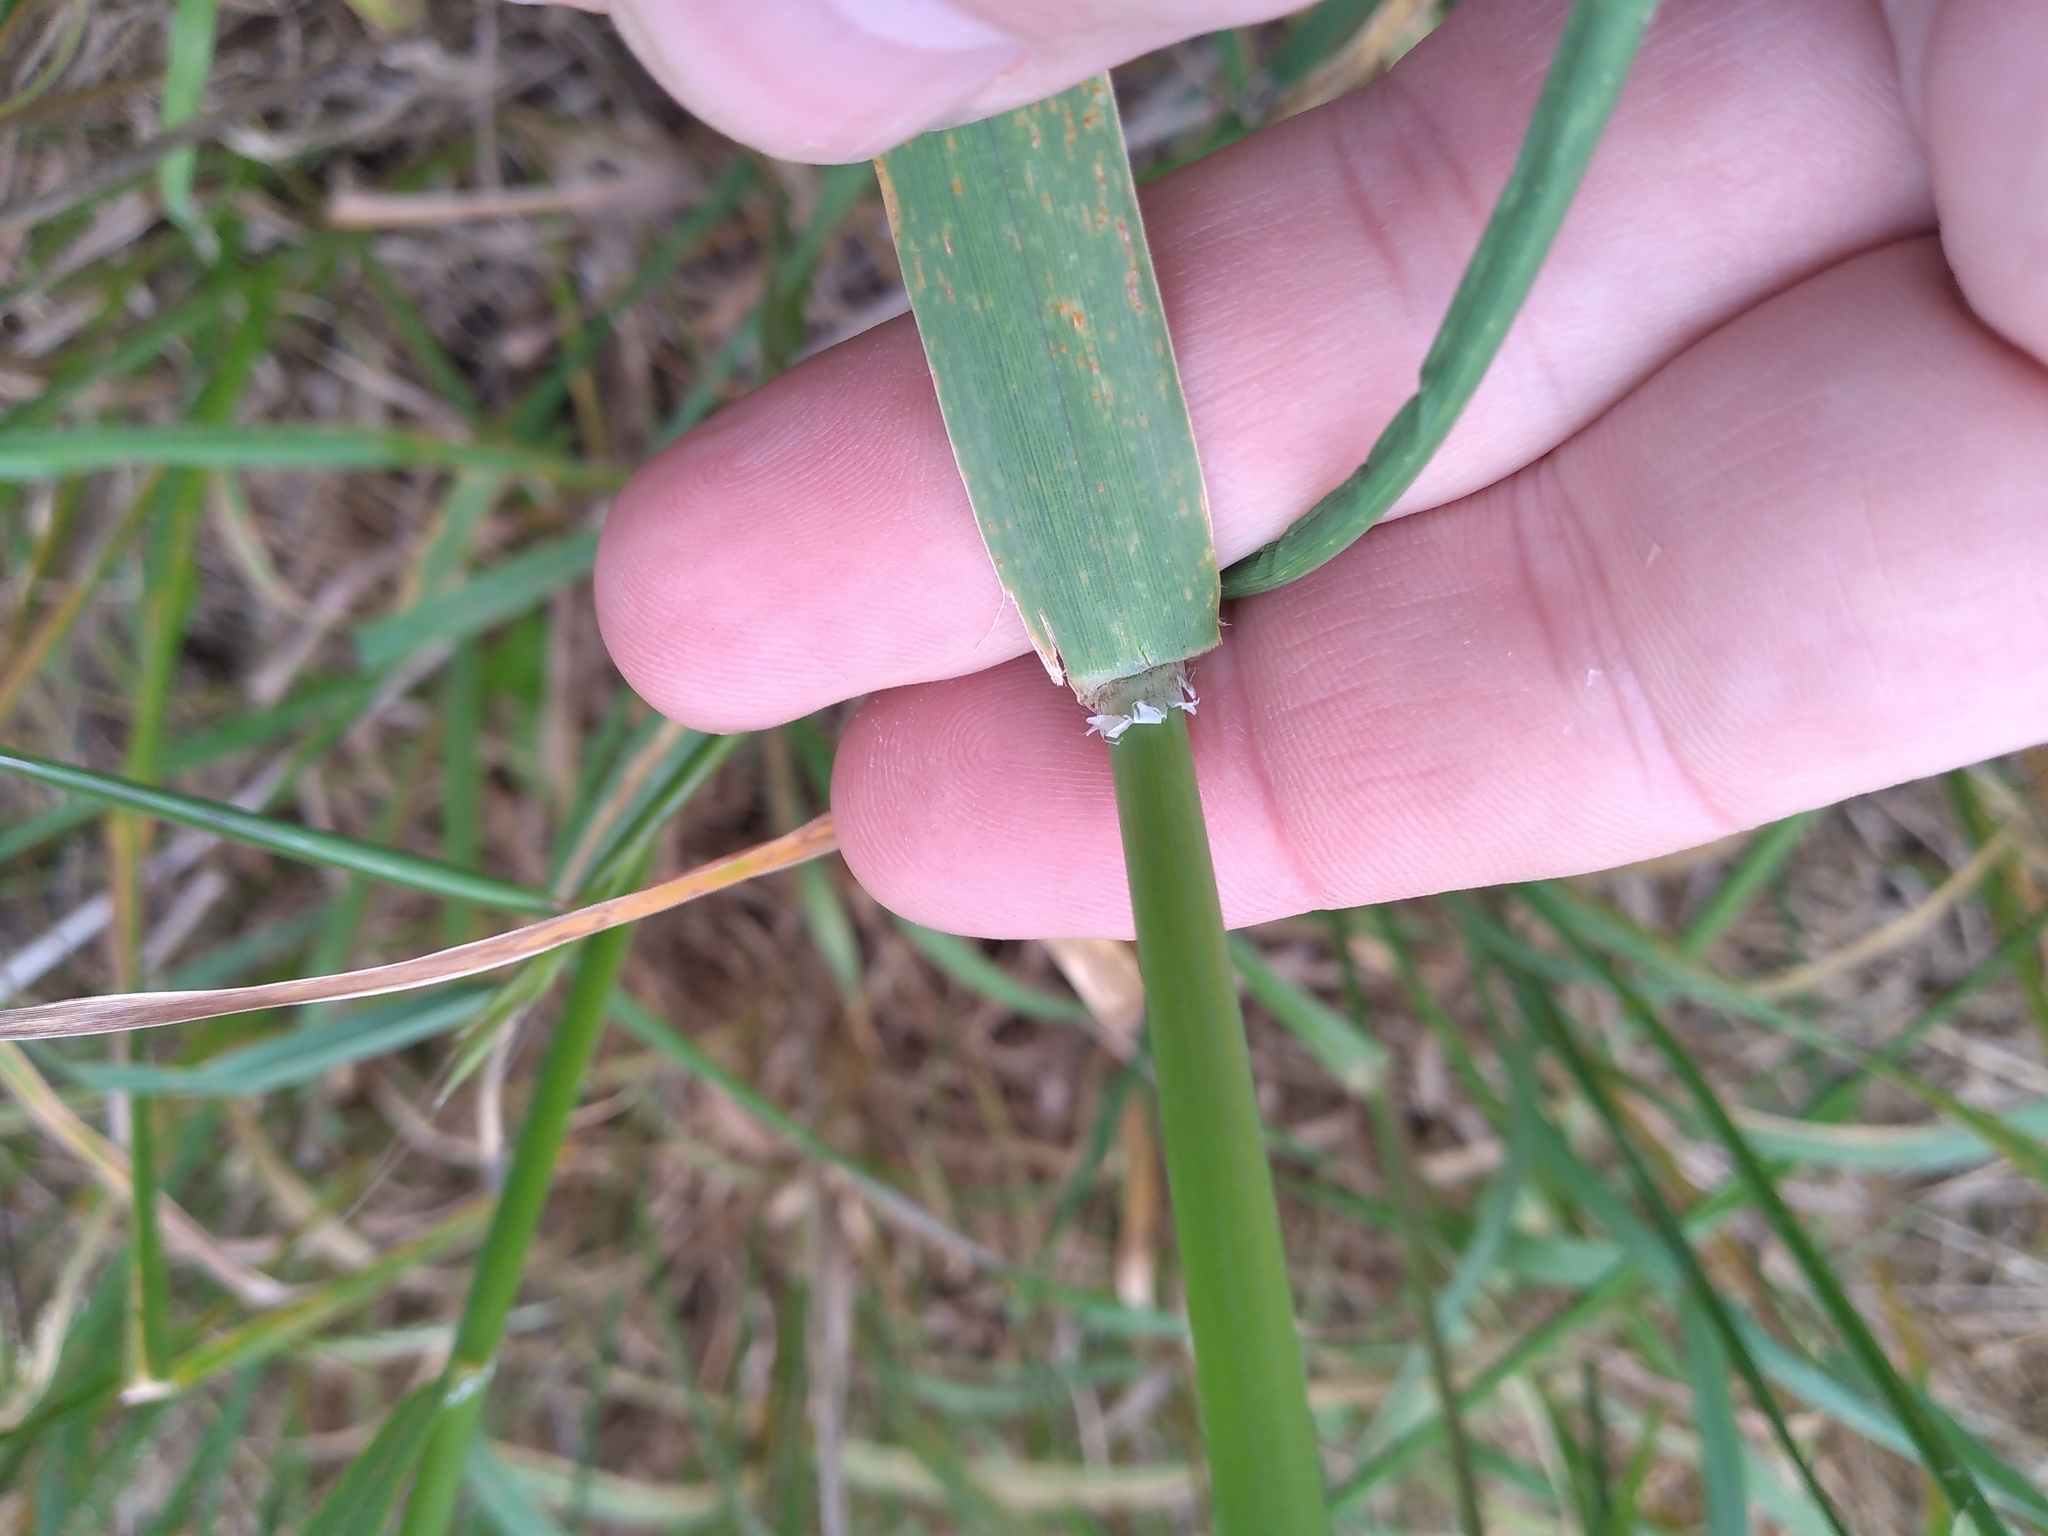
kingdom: Plantae
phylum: Tracheophyta
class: Liliopsida
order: Poales
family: Poaceae
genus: Phalaris
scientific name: Phalaris aquatica
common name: Bulbous canary-grass
